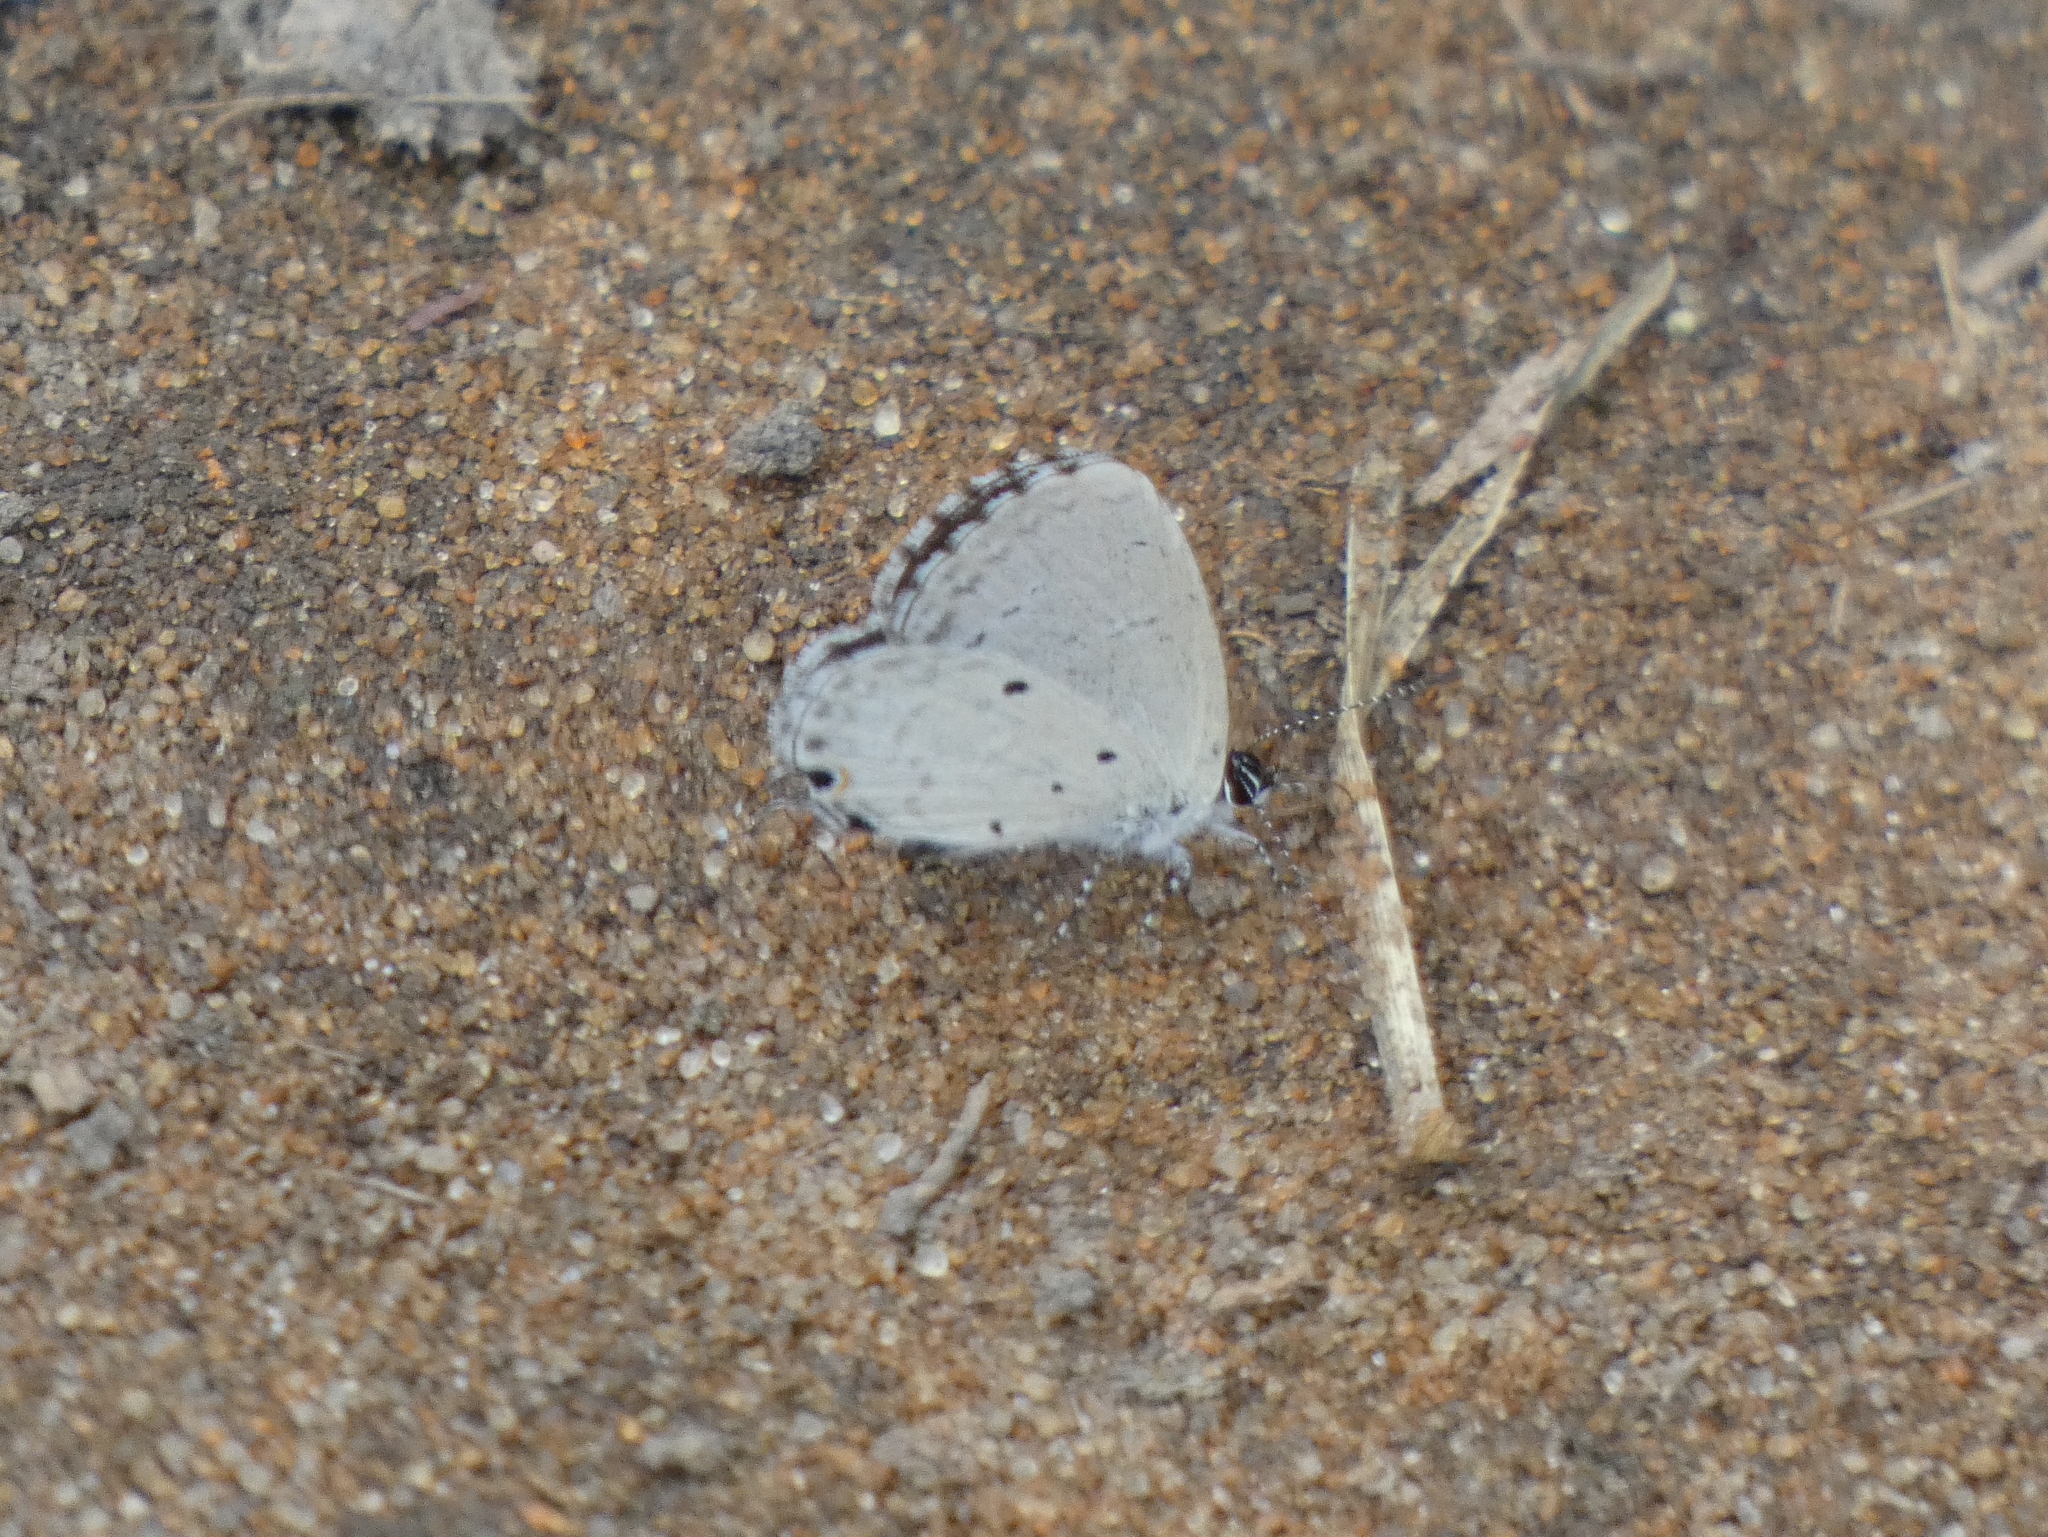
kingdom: Animalia
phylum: Arthropoda
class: Insecta
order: Lepidoptera
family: Lycaenidae
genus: Eicochrysops
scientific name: Eicochrysops hippocrates
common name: White-tipped blue
